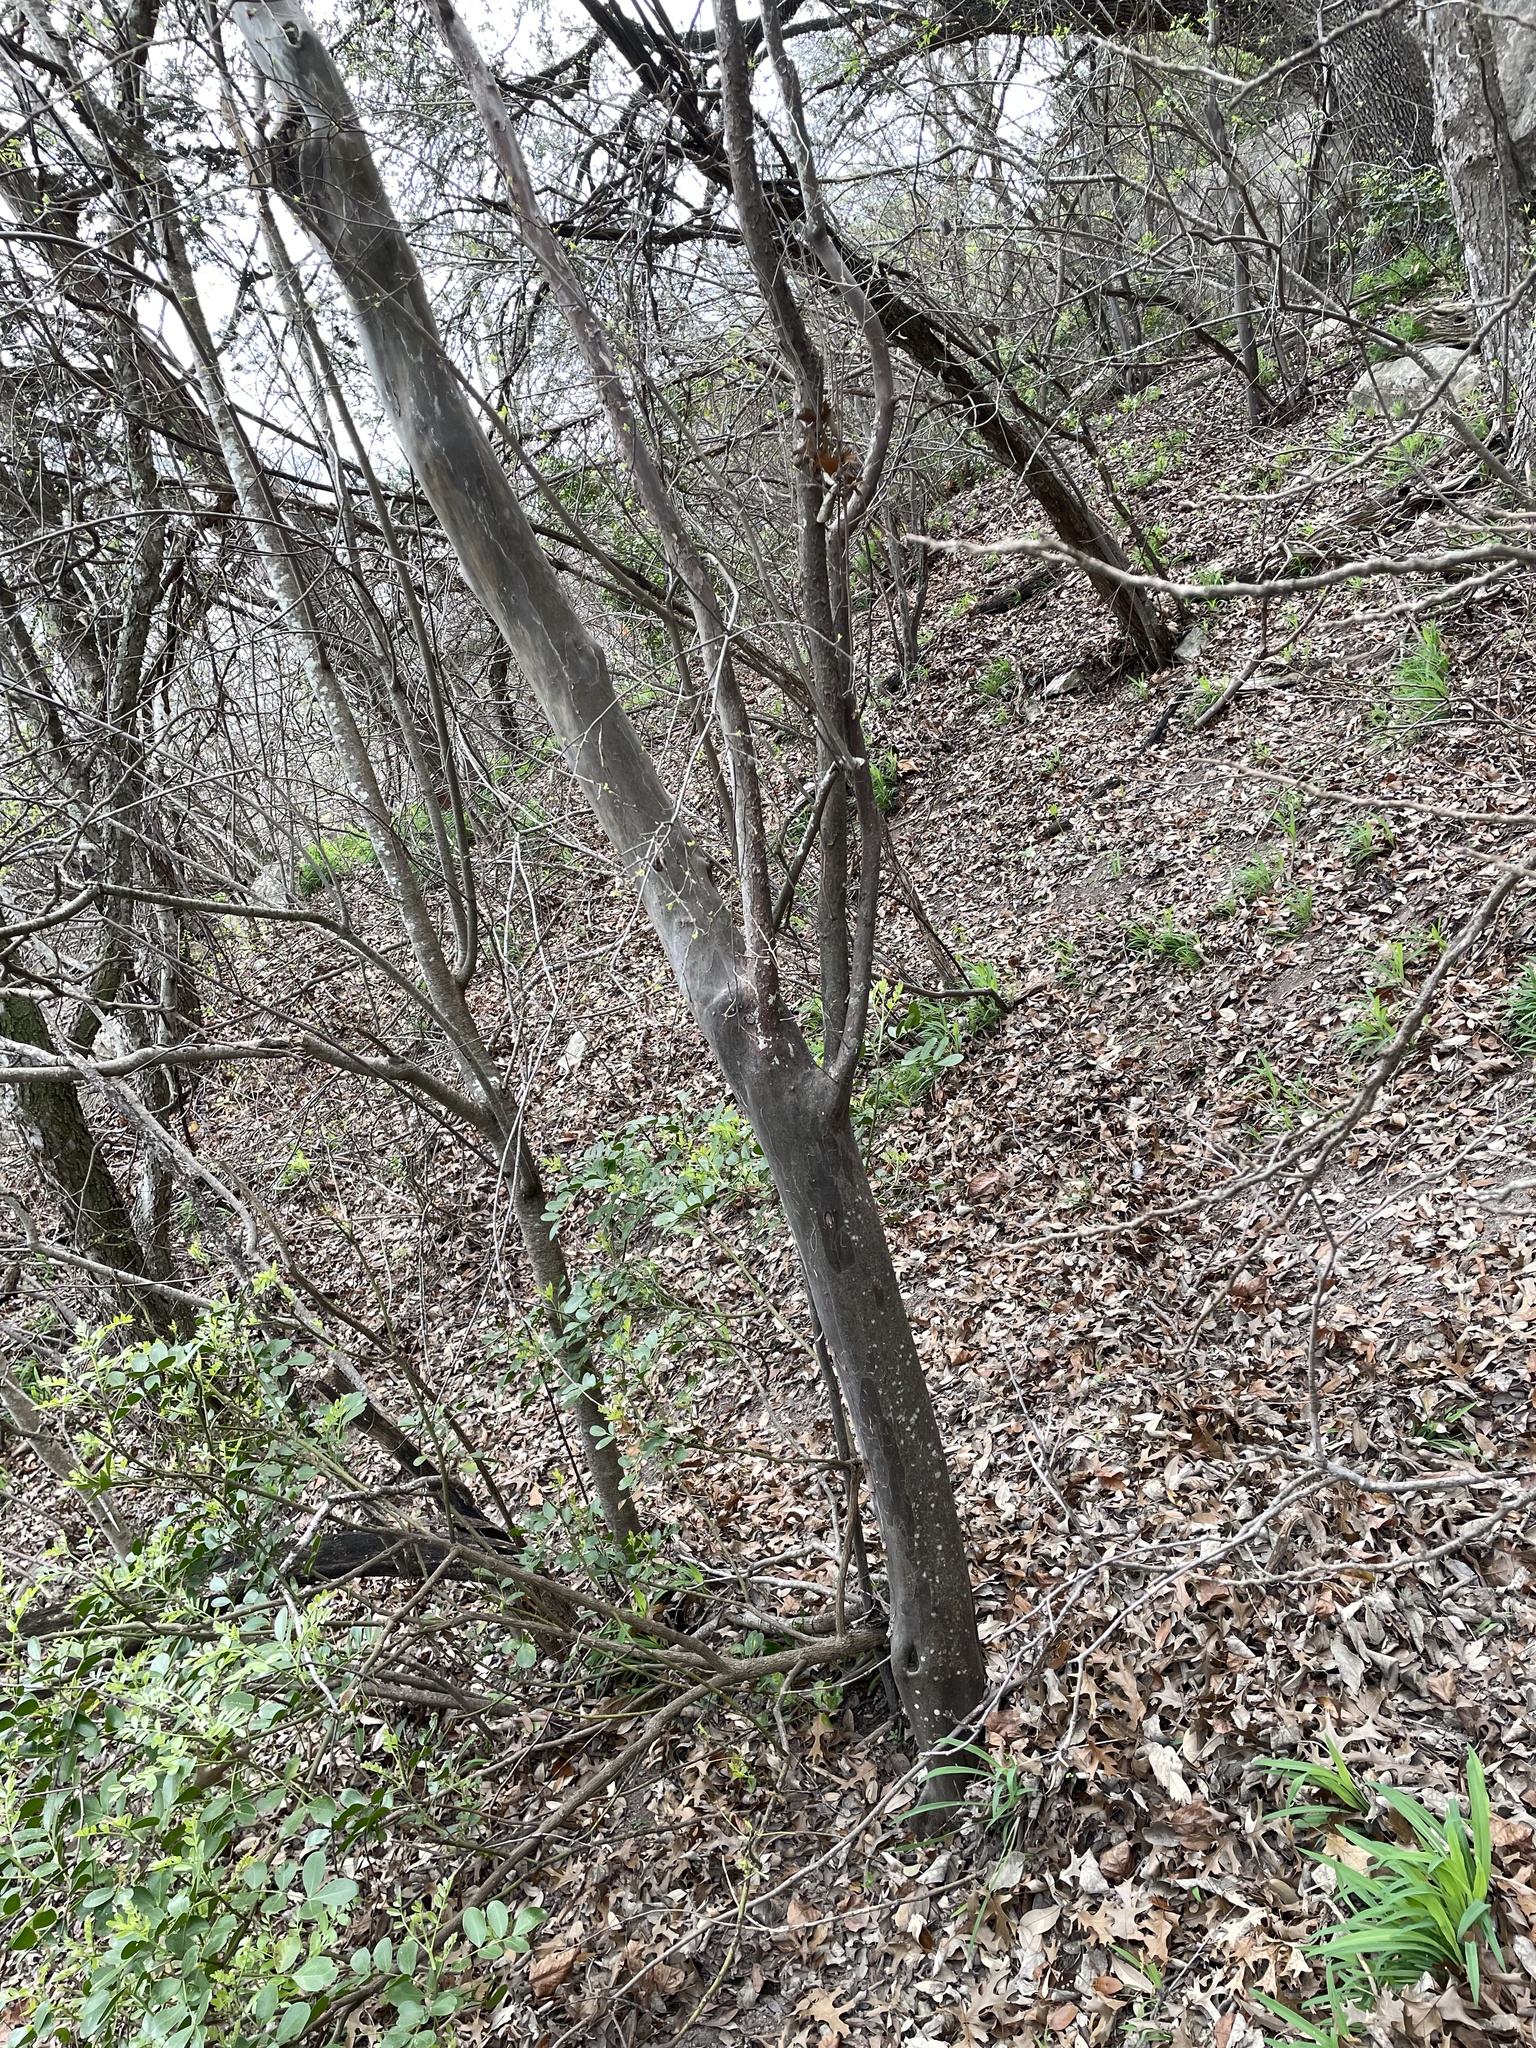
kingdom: Plantae
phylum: Tracheophyta
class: Magnoliopsida
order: Ericales
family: Ebenaceae
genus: Diospyros
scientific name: Diospyros texana
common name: Texas persimmon
